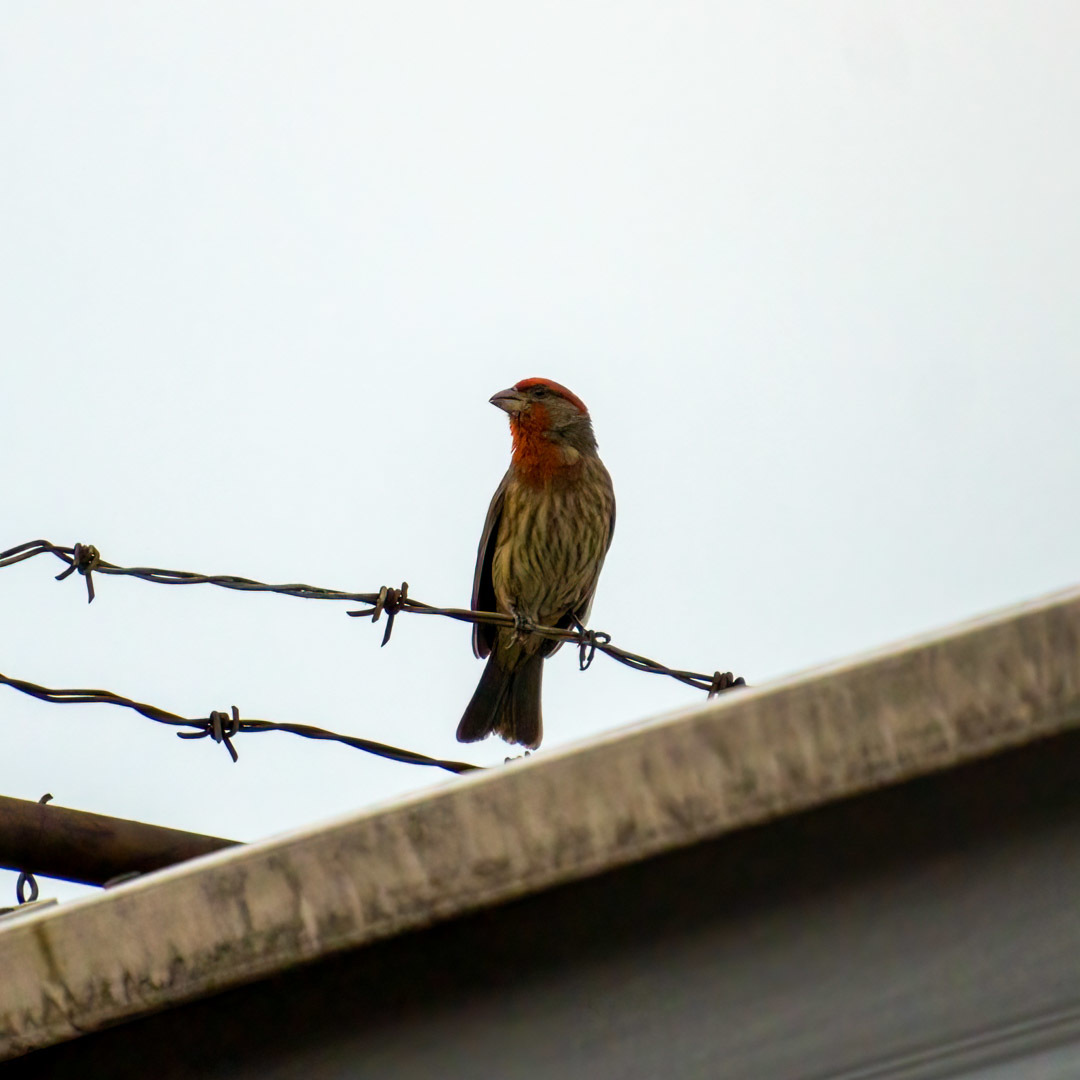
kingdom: Animalia
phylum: Chordata
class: Aves
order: Passeriformes
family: Fringillidae
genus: Haemorhous
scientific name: Haemorhous mexicanus
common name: House finch
